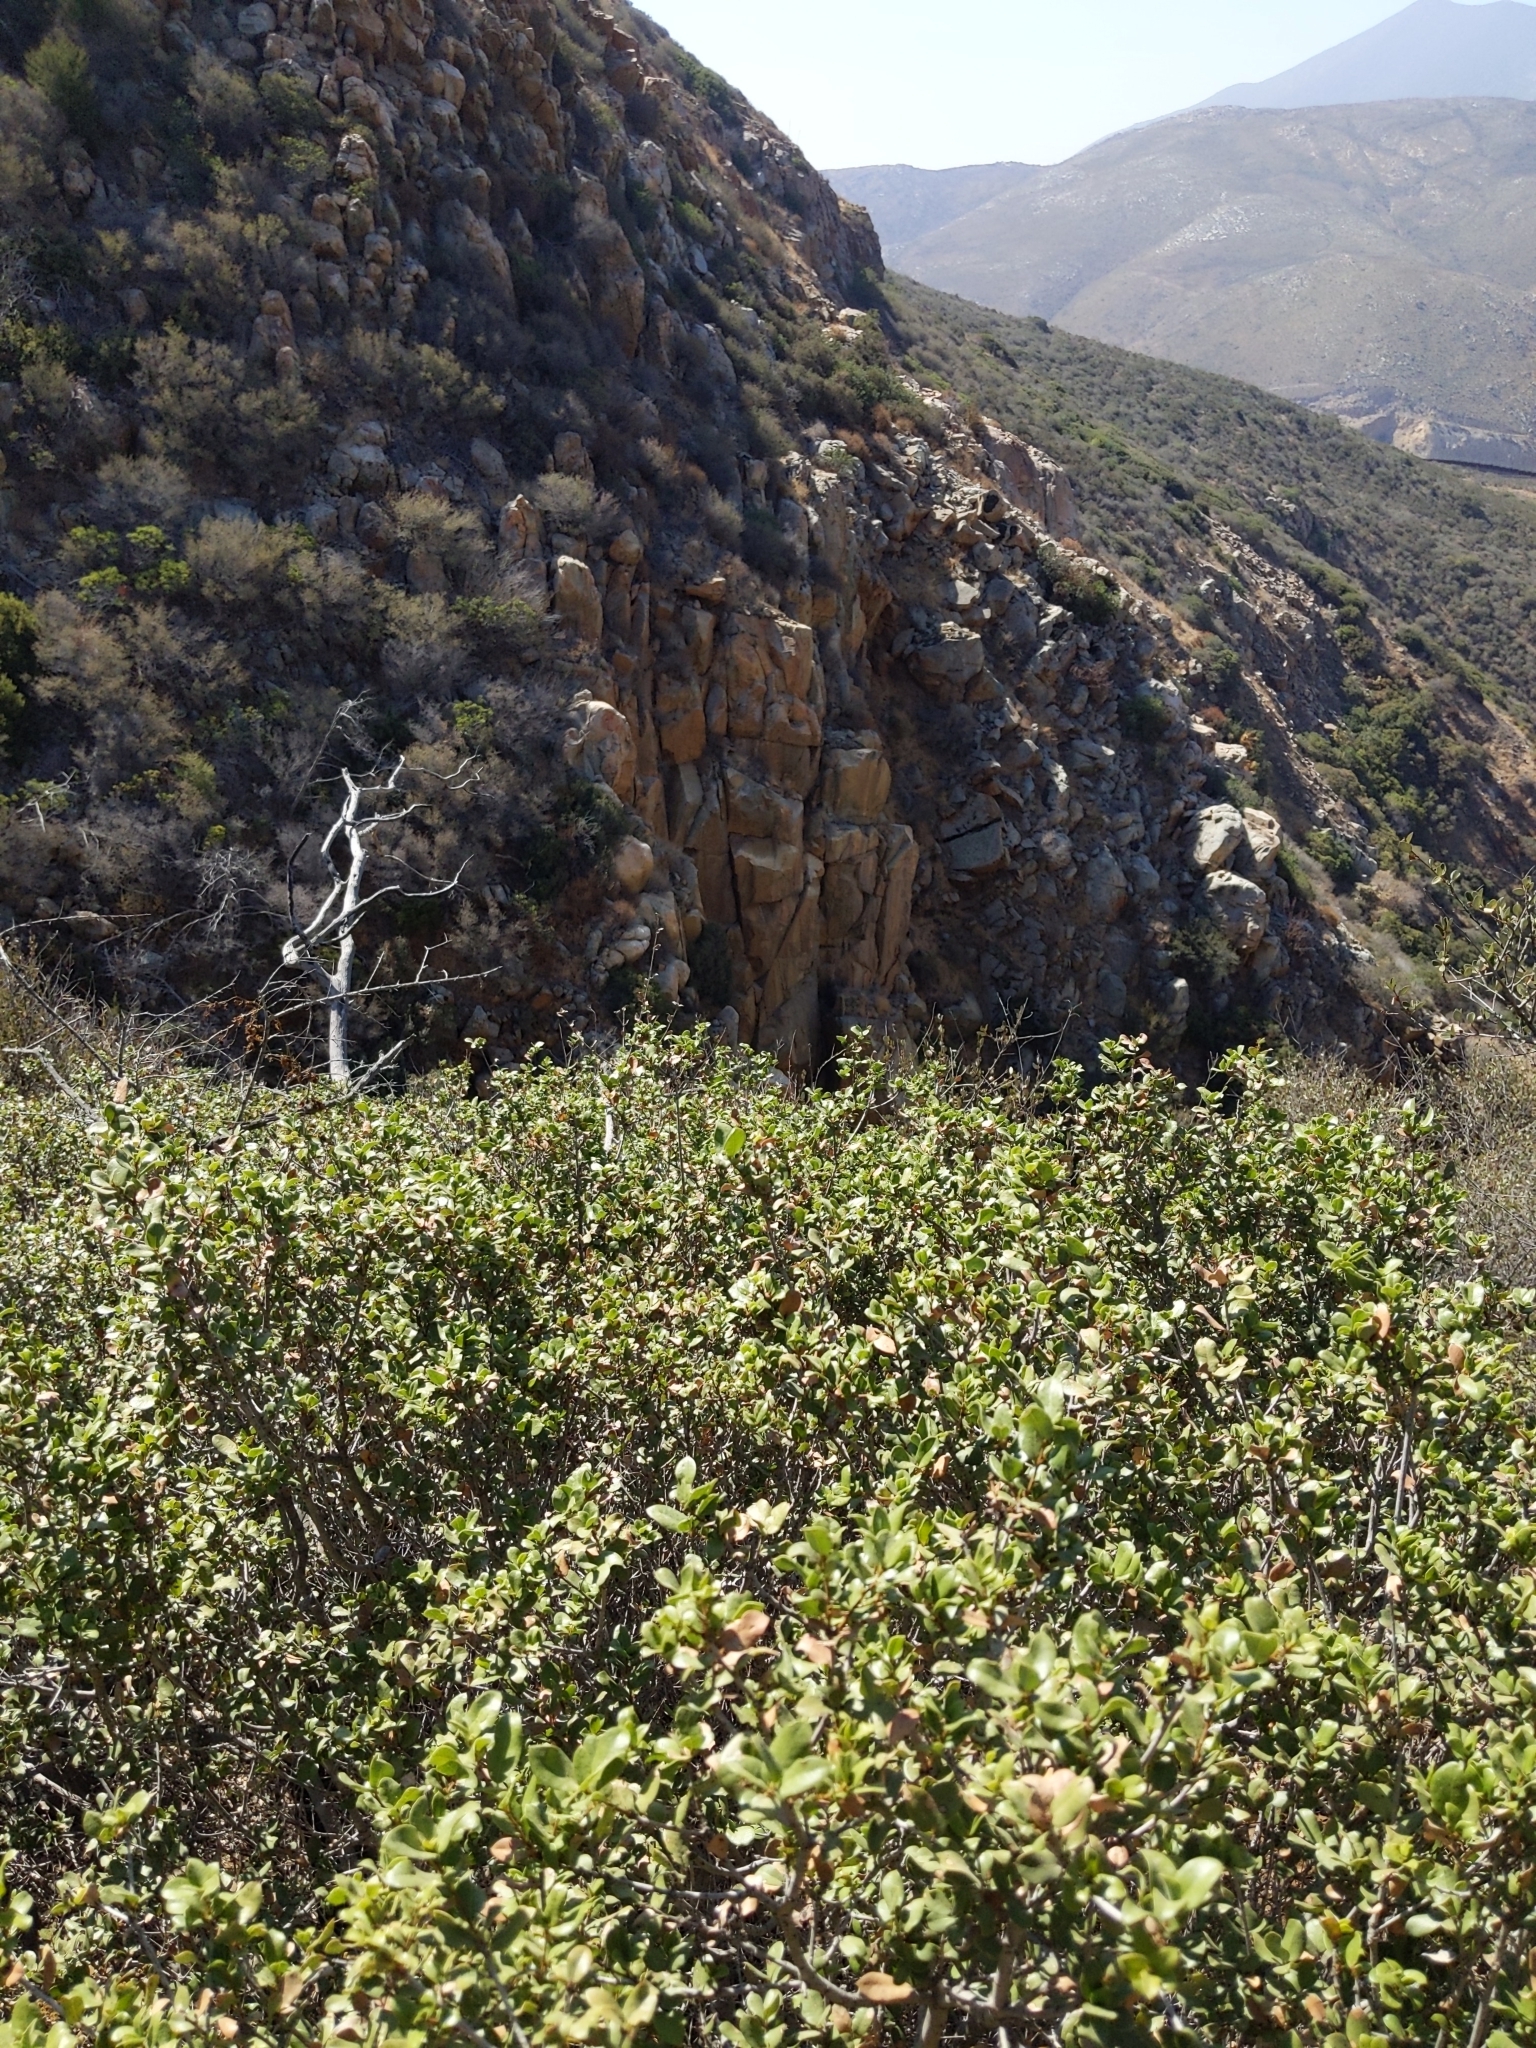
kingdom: Plantae
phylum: Tracheophyta
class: Magnoliopsida
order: Fagales
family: Fagaceae
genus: Quercus
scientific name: Quercus cedrosensis
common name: Cedros island oak
